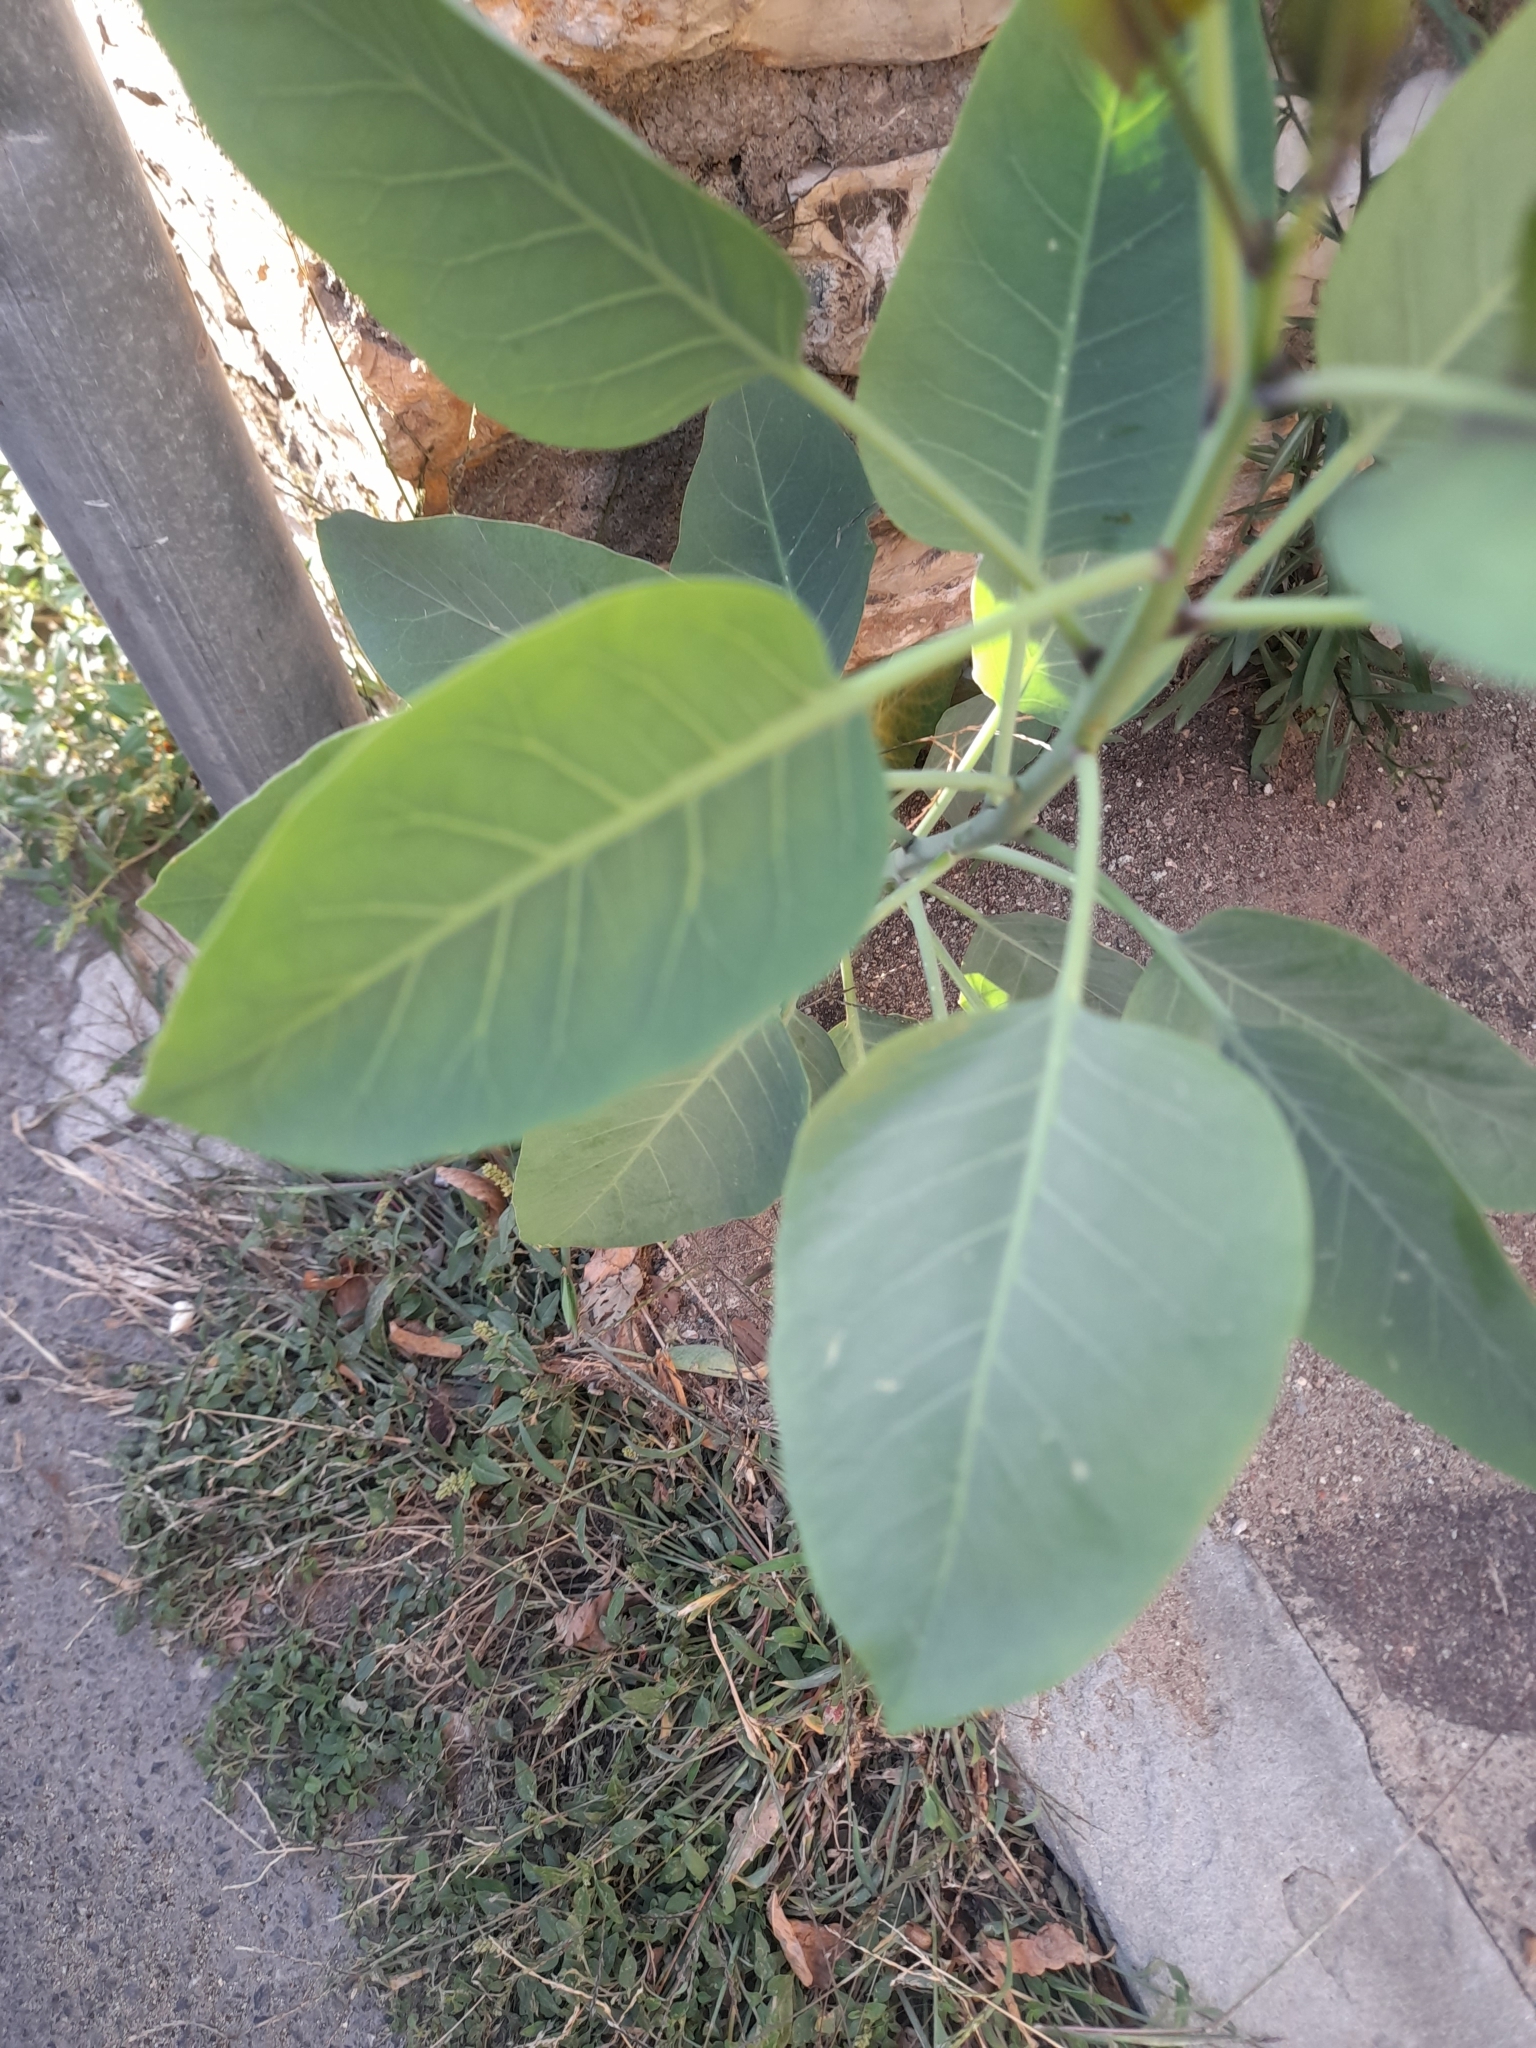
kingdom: Plantae
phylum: Tracheophyta
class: Magnoliopsida
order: Solanales
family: Solanaceae
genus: Nicotiana
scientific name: Nicotiana glauca
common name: Tree tobacco
